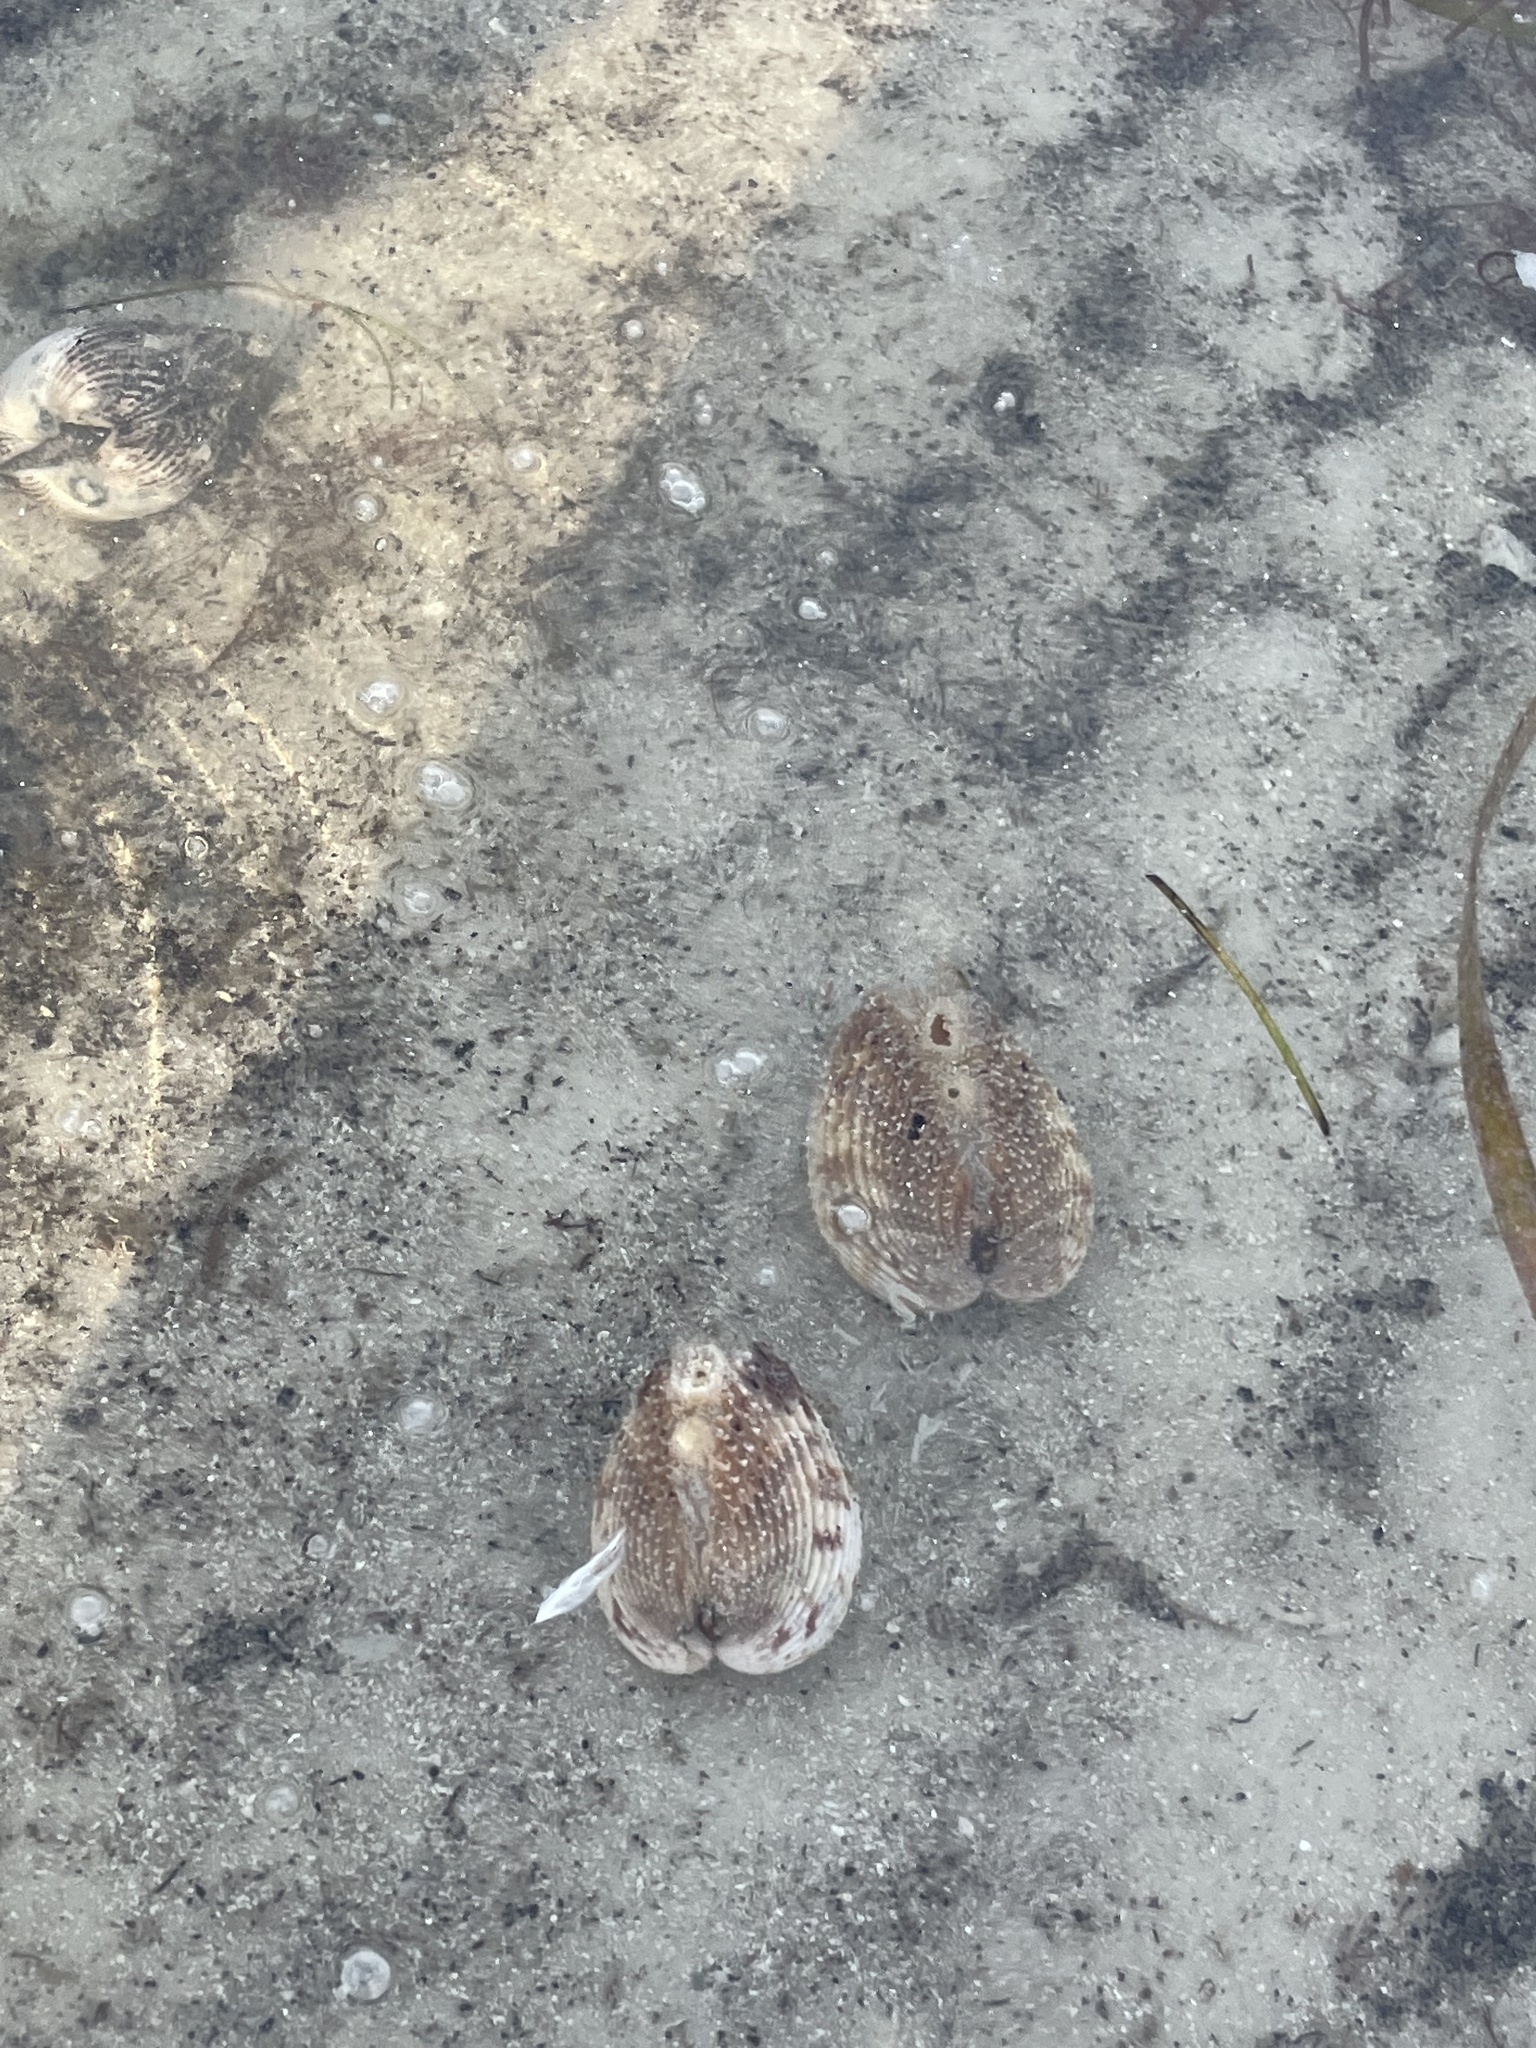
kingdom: Animalia
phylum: Mollusca
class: Bivalvia
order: Cardiida
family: Cardiidae
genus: Trachycardium
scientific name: Trachycardium egmontianum
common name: Florida pricklycockle
